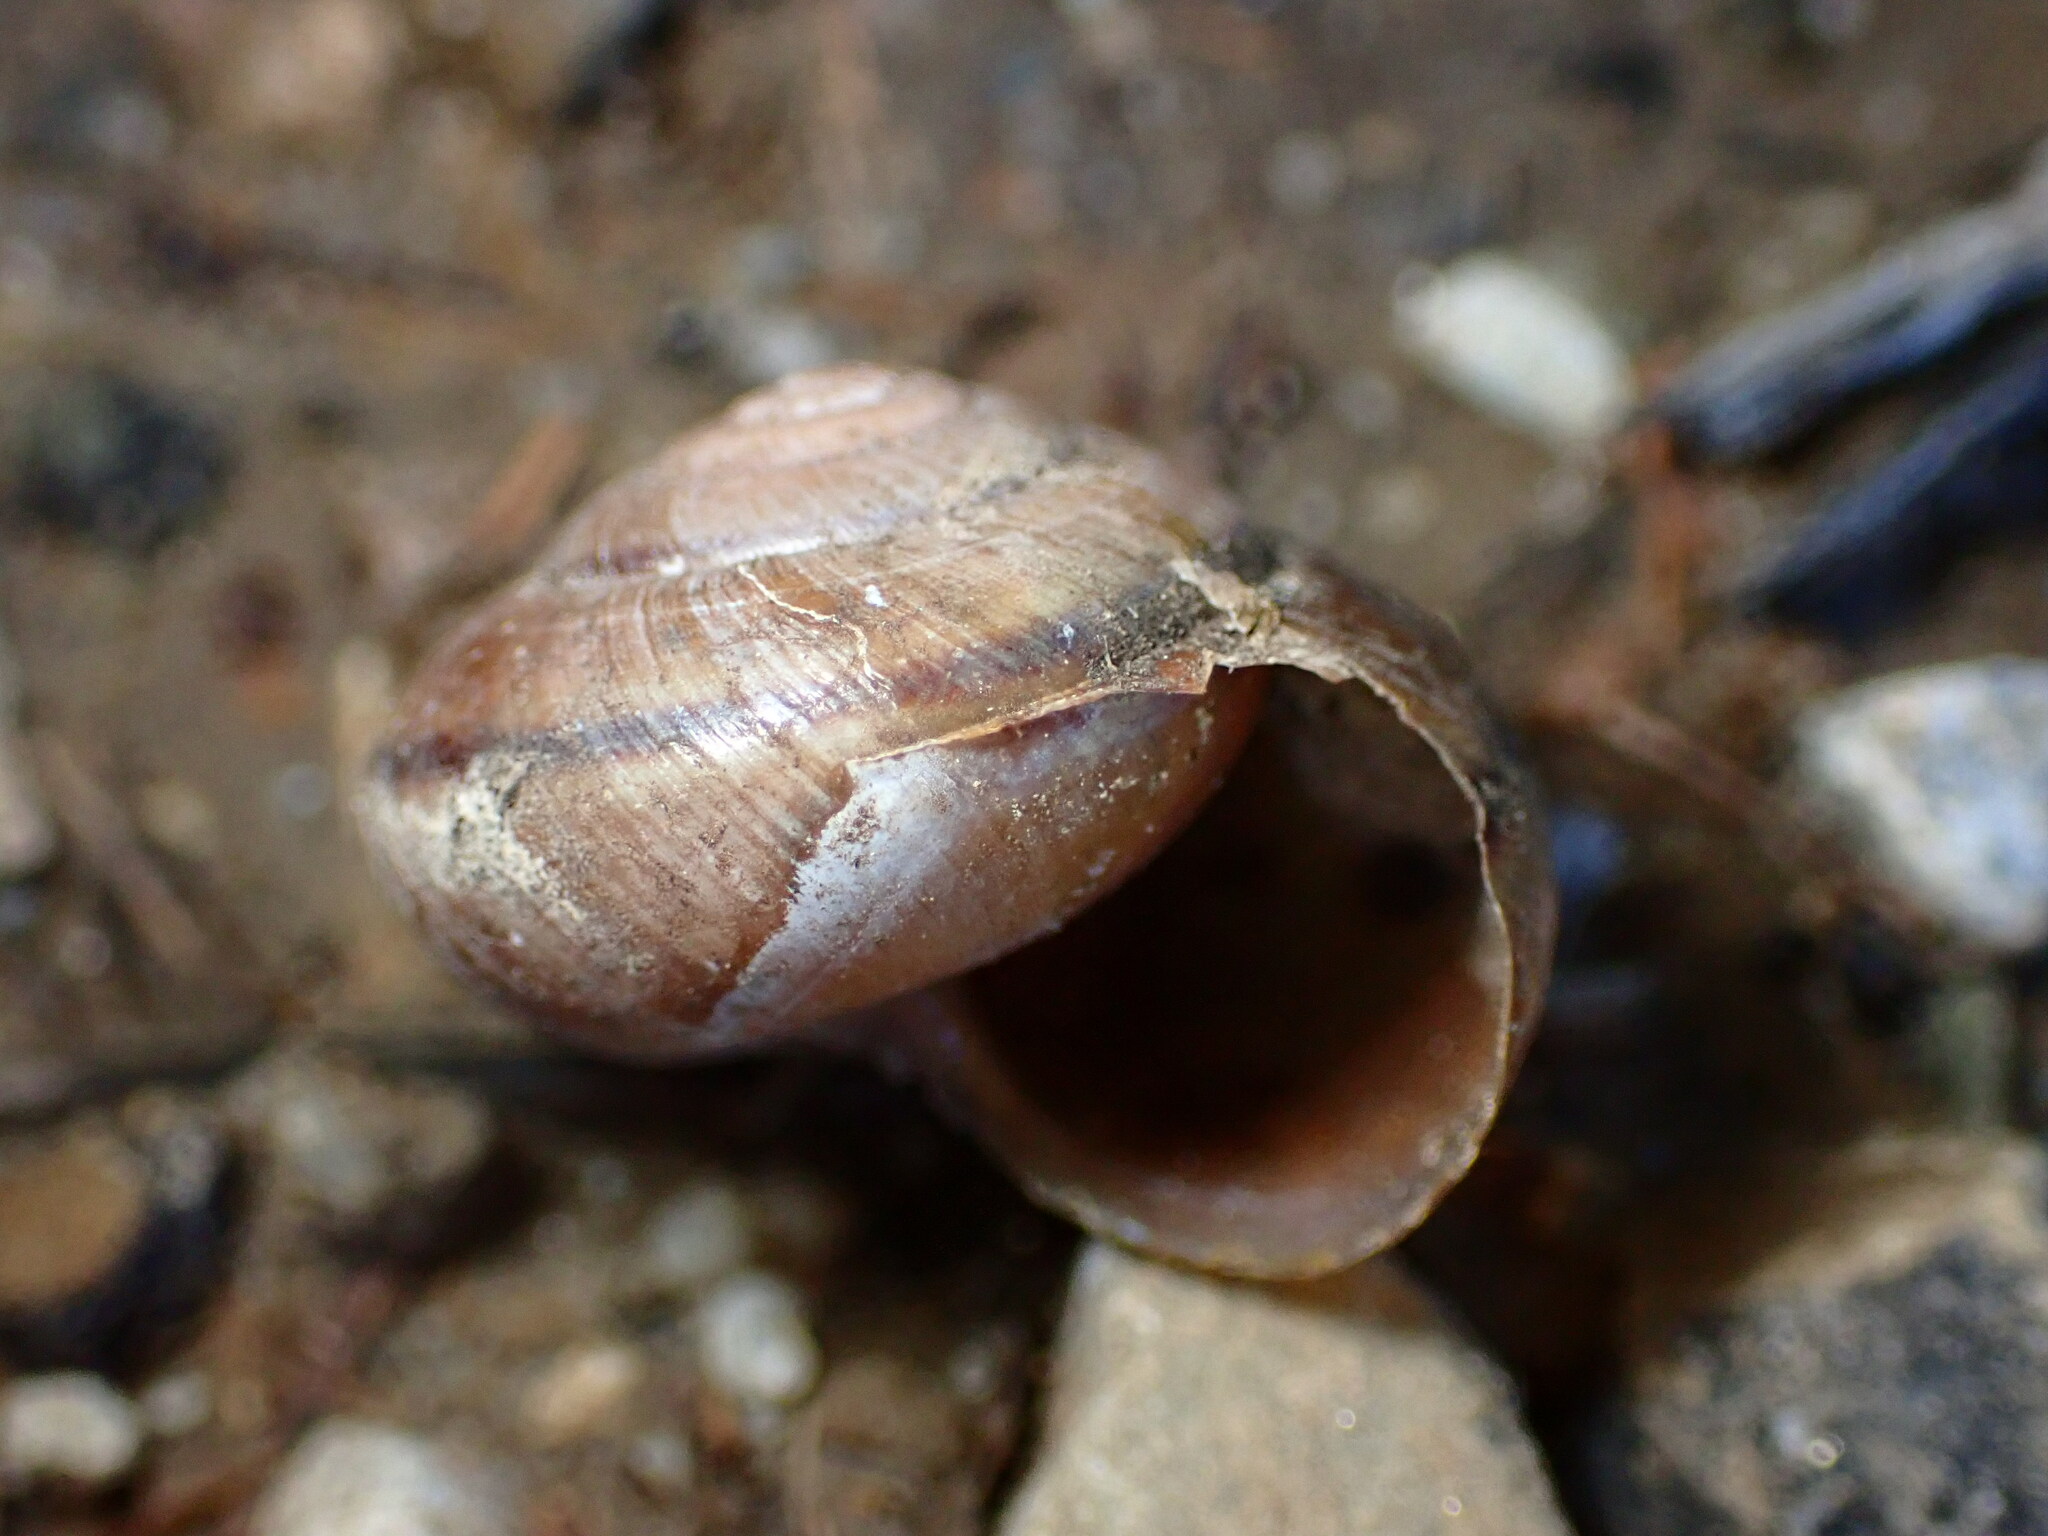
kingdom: Animalia
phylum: Mollusca
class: Gastropoda
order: Stylommatophora
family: Xanthonychidae
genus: Helminthoglypta
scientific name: Helminthoglypta traskii
